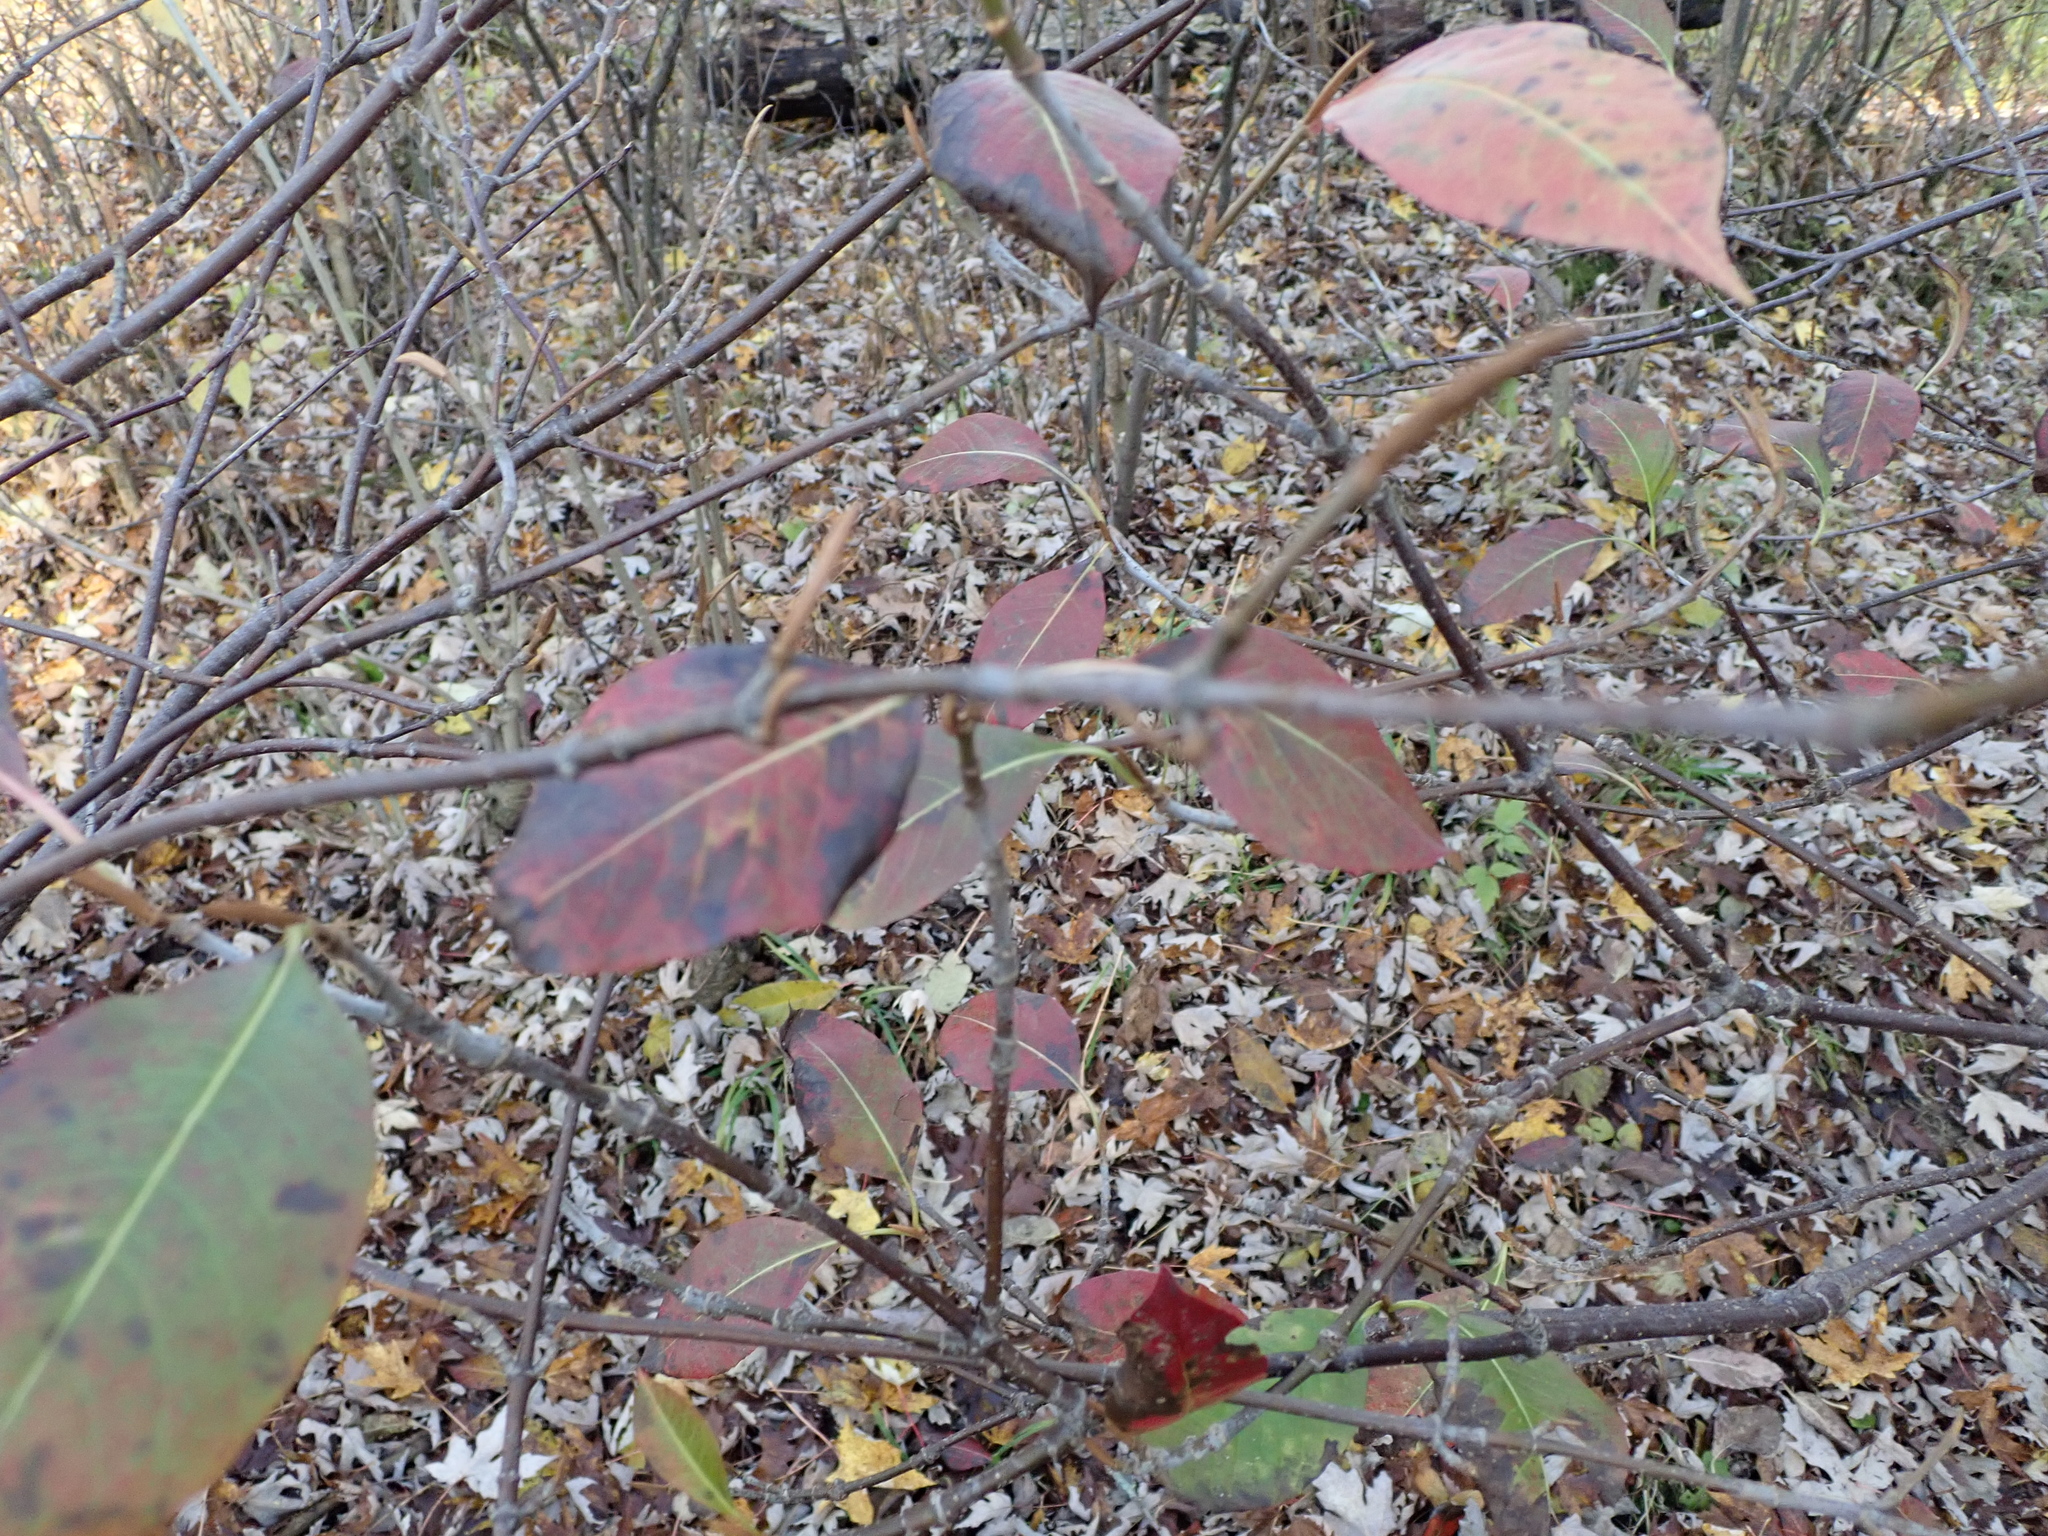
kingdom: Plantae
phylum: Tracheophyta
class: Magnoliopsida
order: Dipsacales
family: Viburnaceae
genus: Viburnum
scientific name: Viburnum cassinoides
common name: Swamp haw
